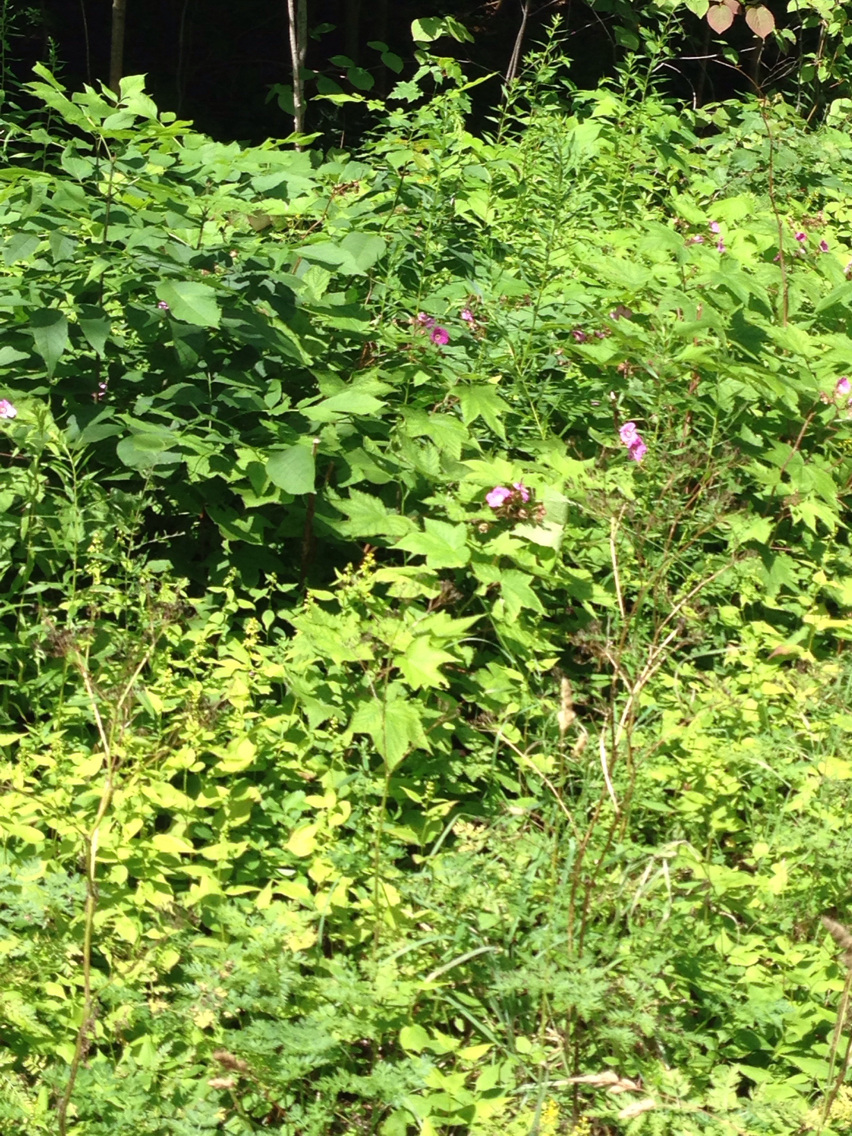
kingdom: Plantae
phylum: Tracheophyta
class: Magnoliopsida
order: Rosales
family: Rosaceae
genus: Rubus
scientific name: Rubus odoratus
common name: Purple-flowered raspberry
